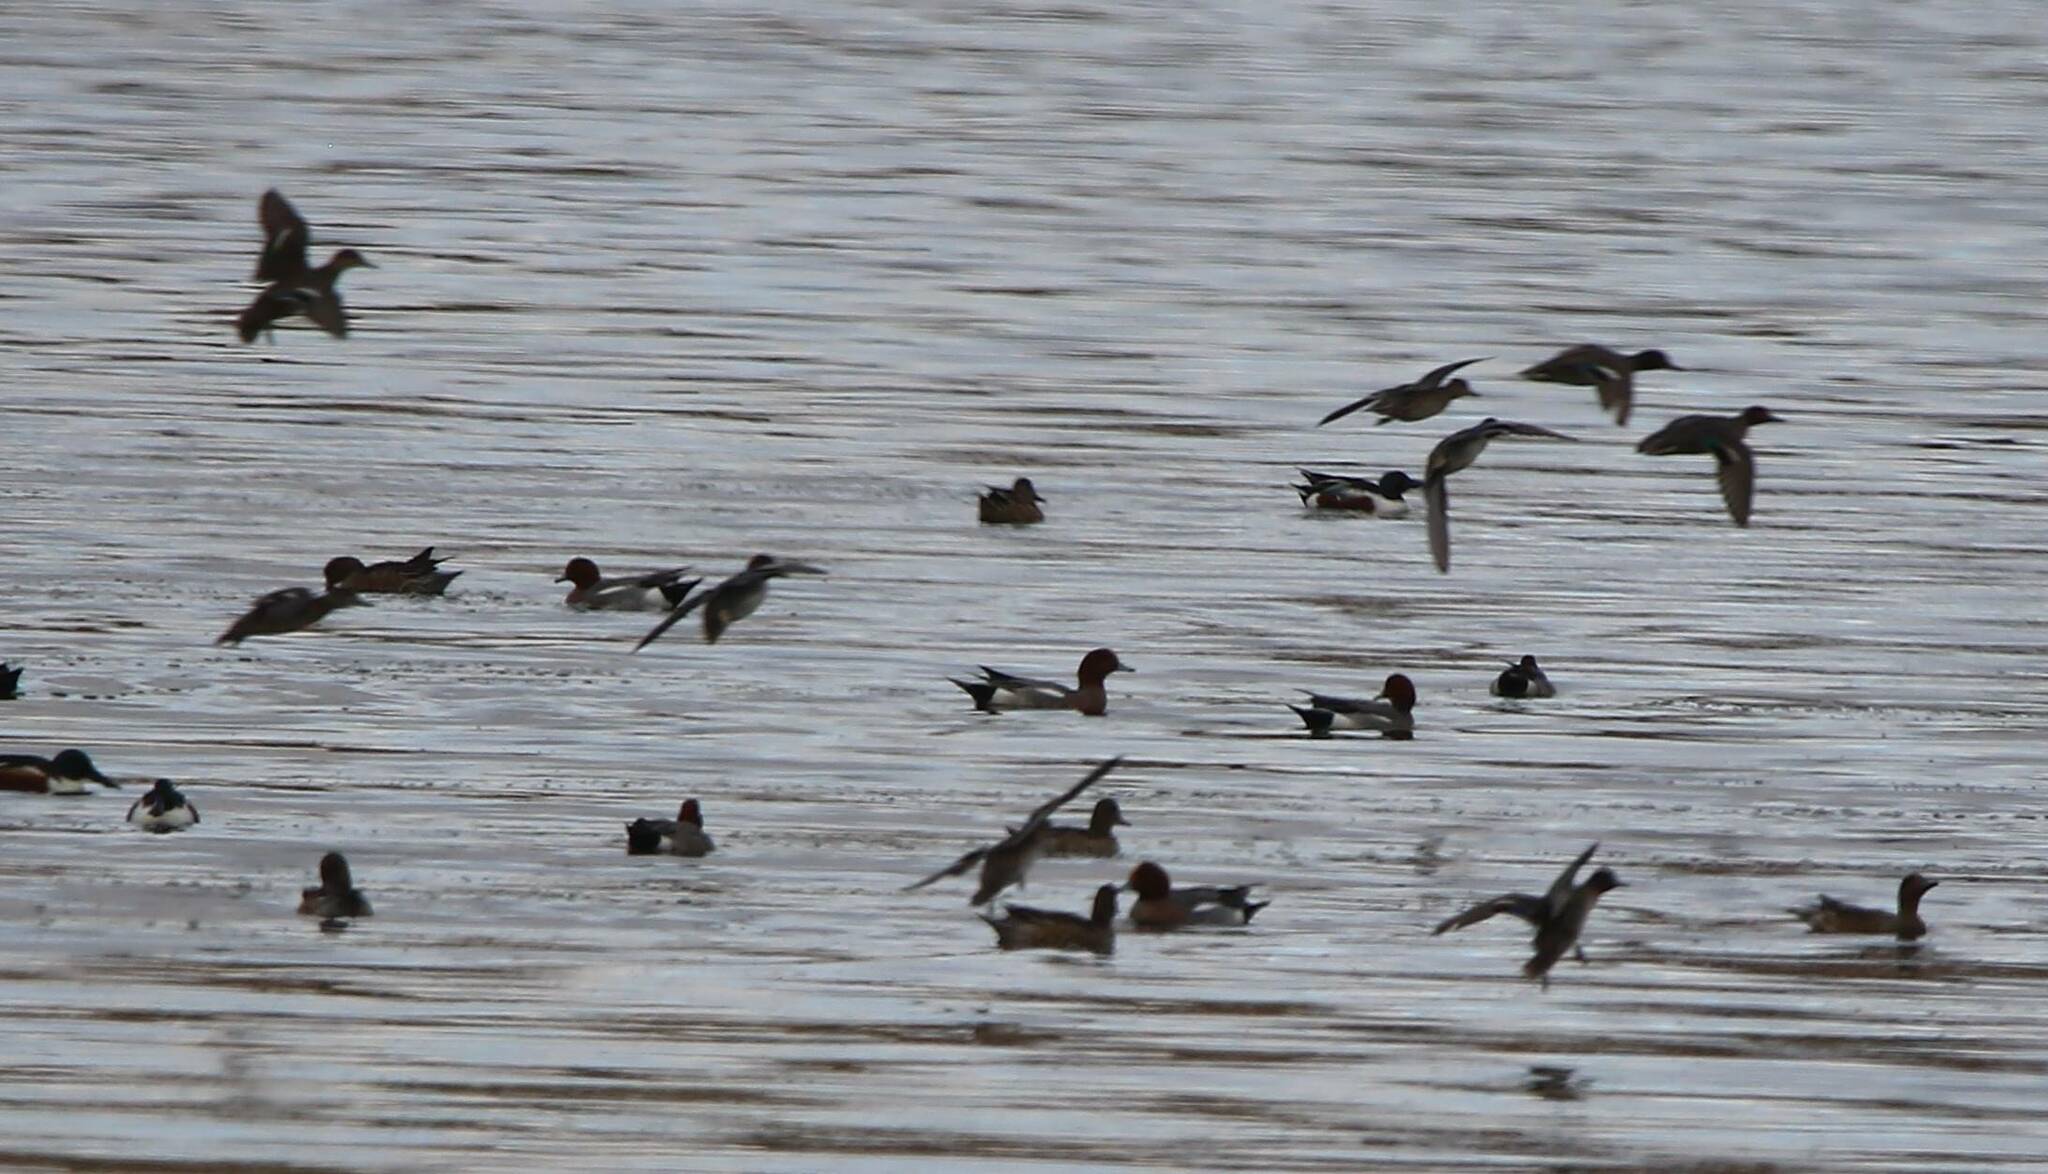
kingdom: Animalia
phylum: Chordata
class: Aves
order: Anseriformes
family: Anatidae
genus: Mareca
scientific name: Mareca penelope
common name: Eurasian wigeon
